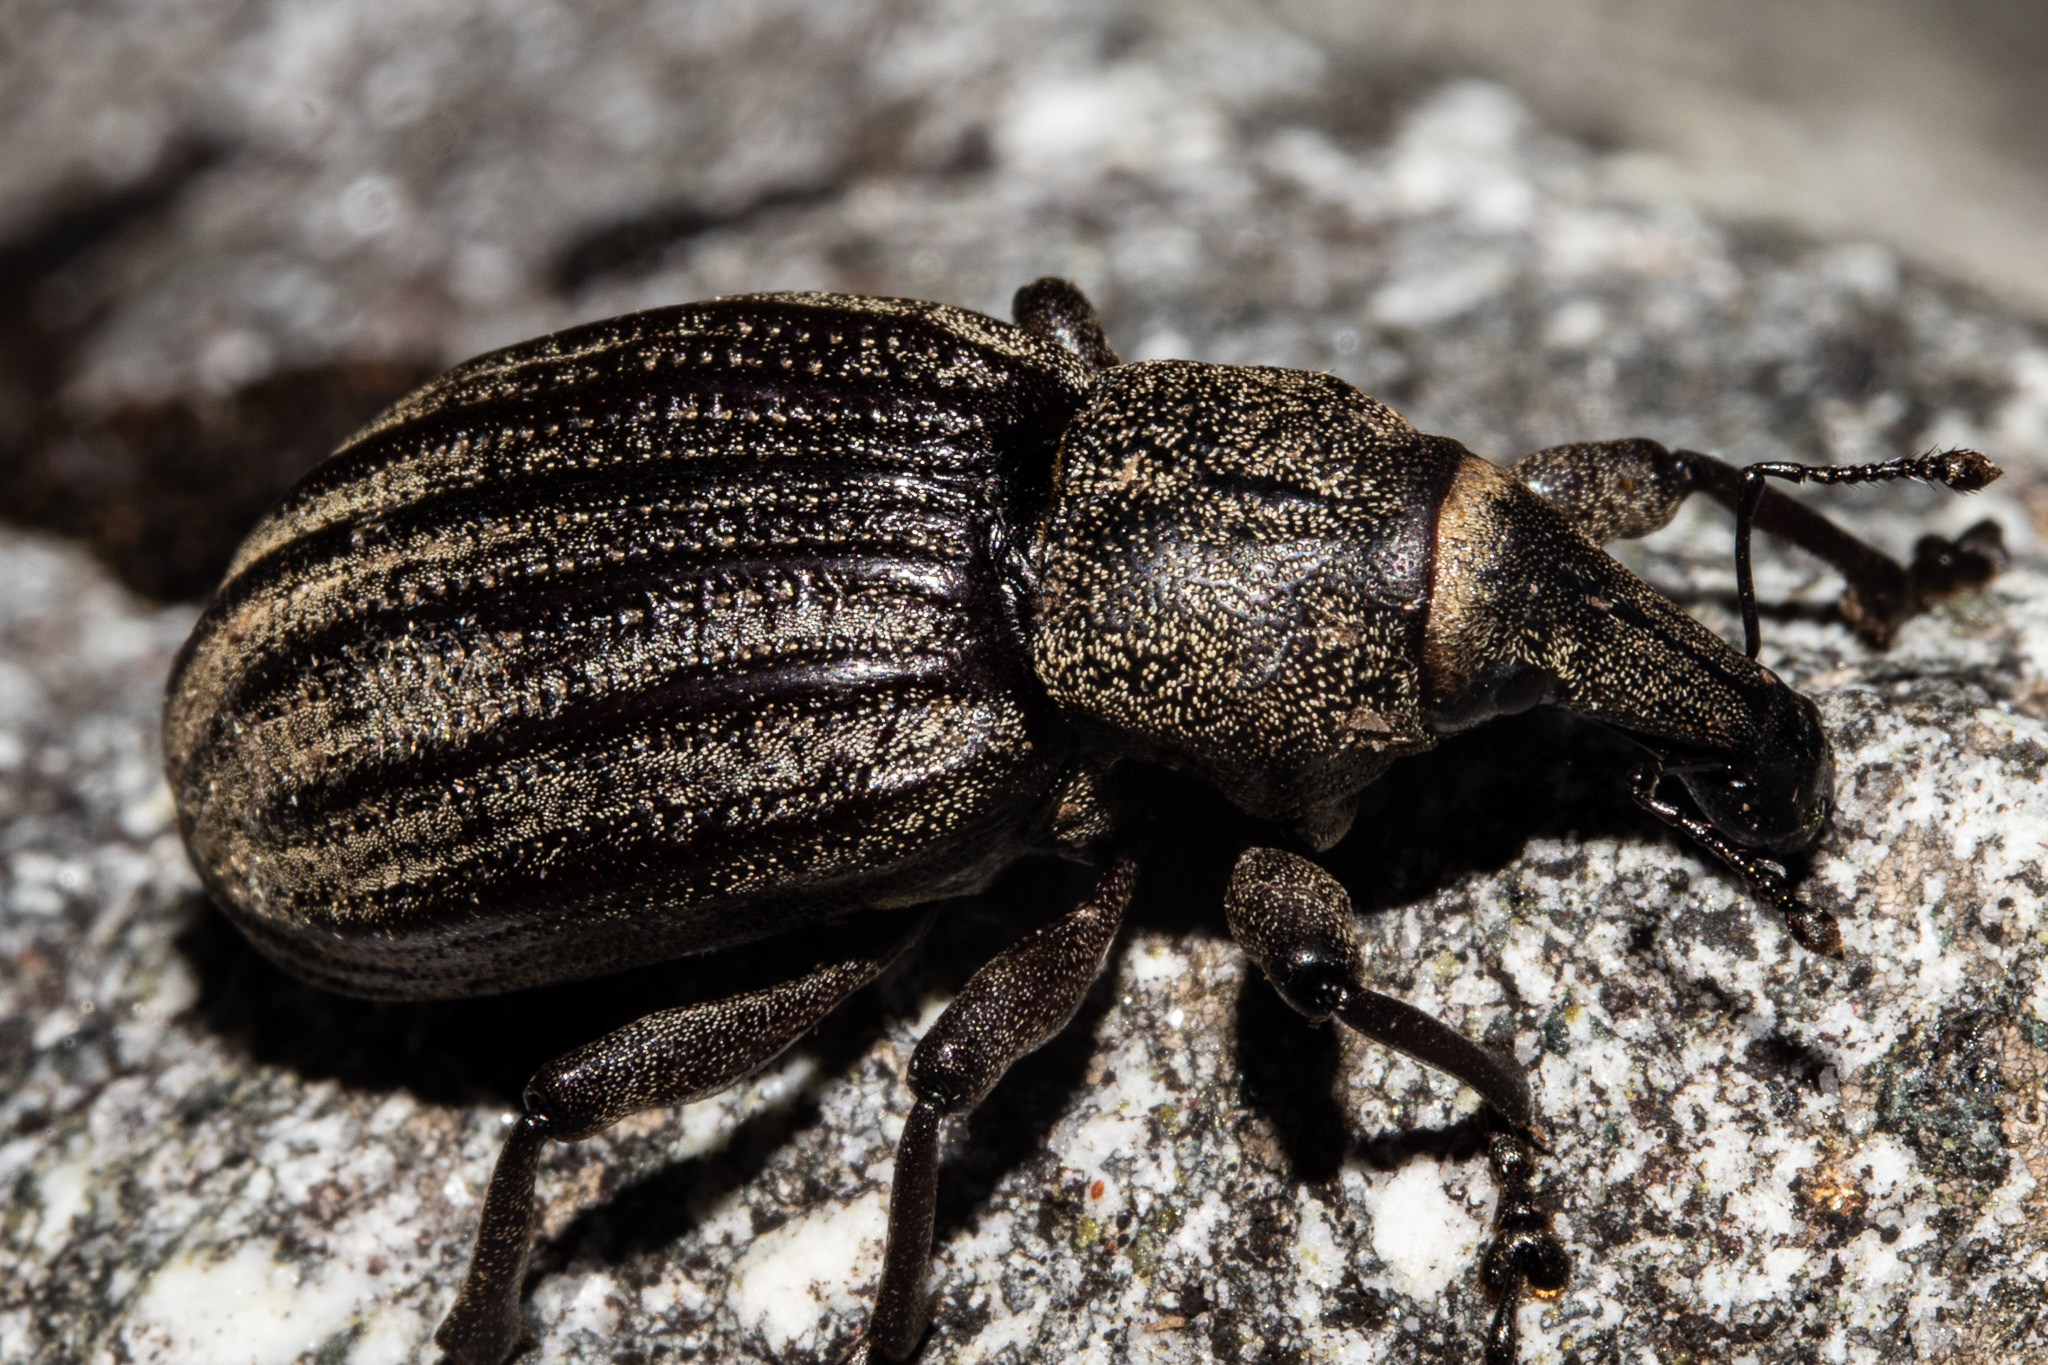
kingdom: Animalia
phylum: Arthropoda
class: Insecta
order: Coleoptera
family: Curculionidae
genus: Lyperobius
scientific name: Lyperobius montanus
